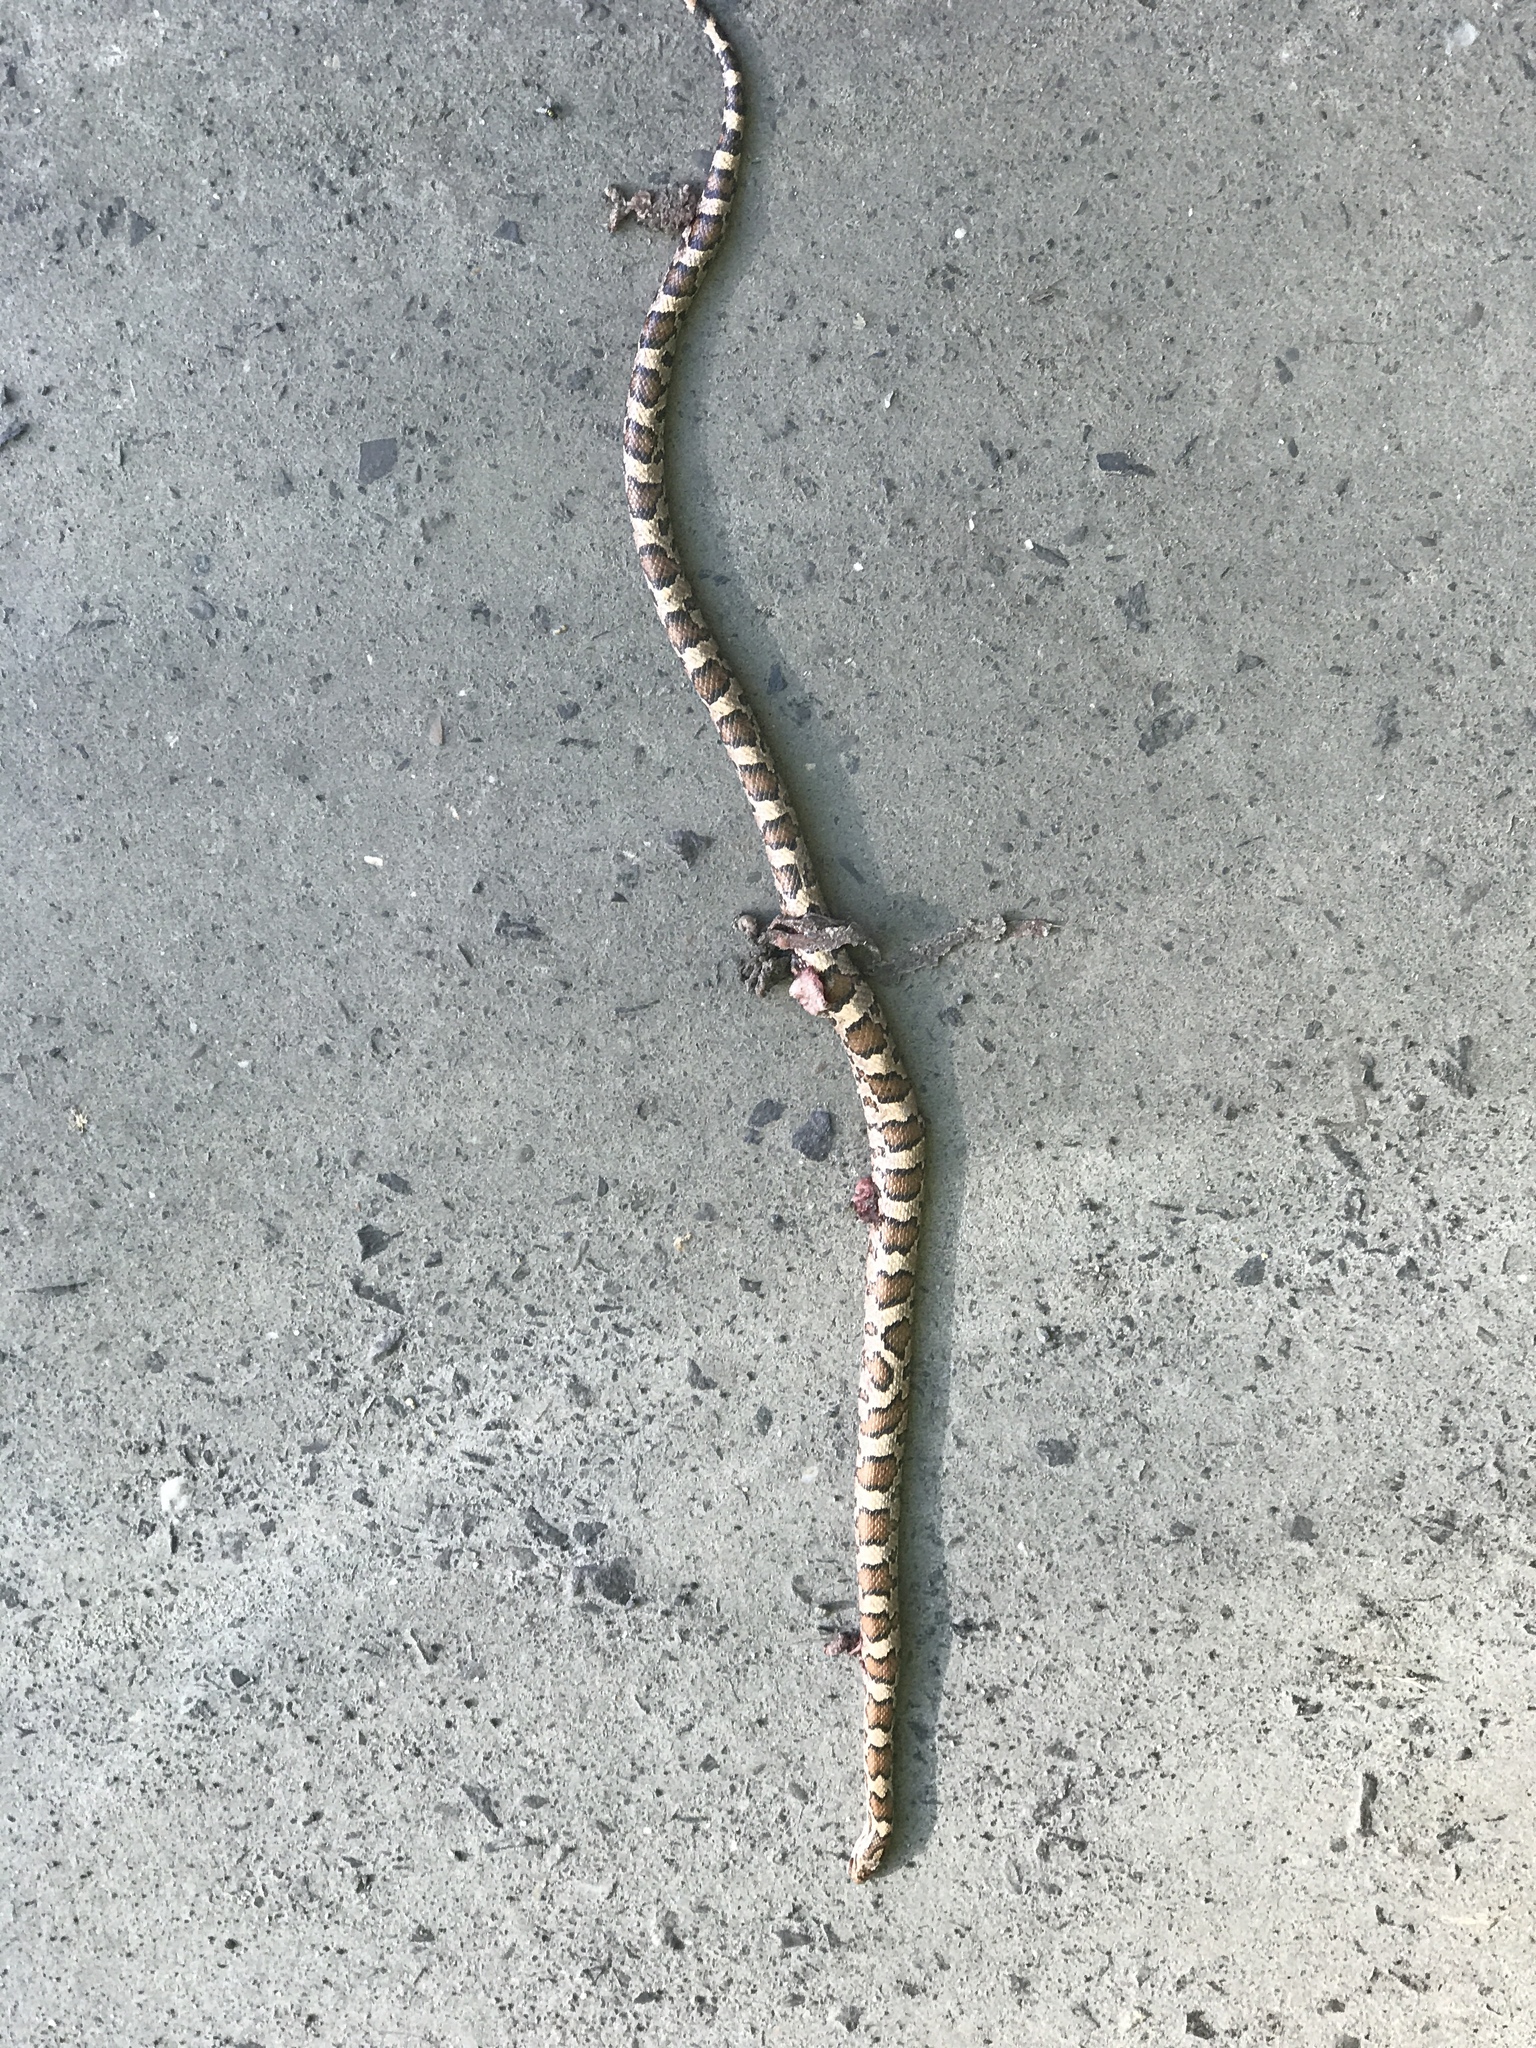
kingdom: Animalia
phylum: Chordata
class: Squamata
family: Colubridae
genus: Lampropeltis
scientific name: Lampropeltis triangulum
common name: Eastern milksnake
